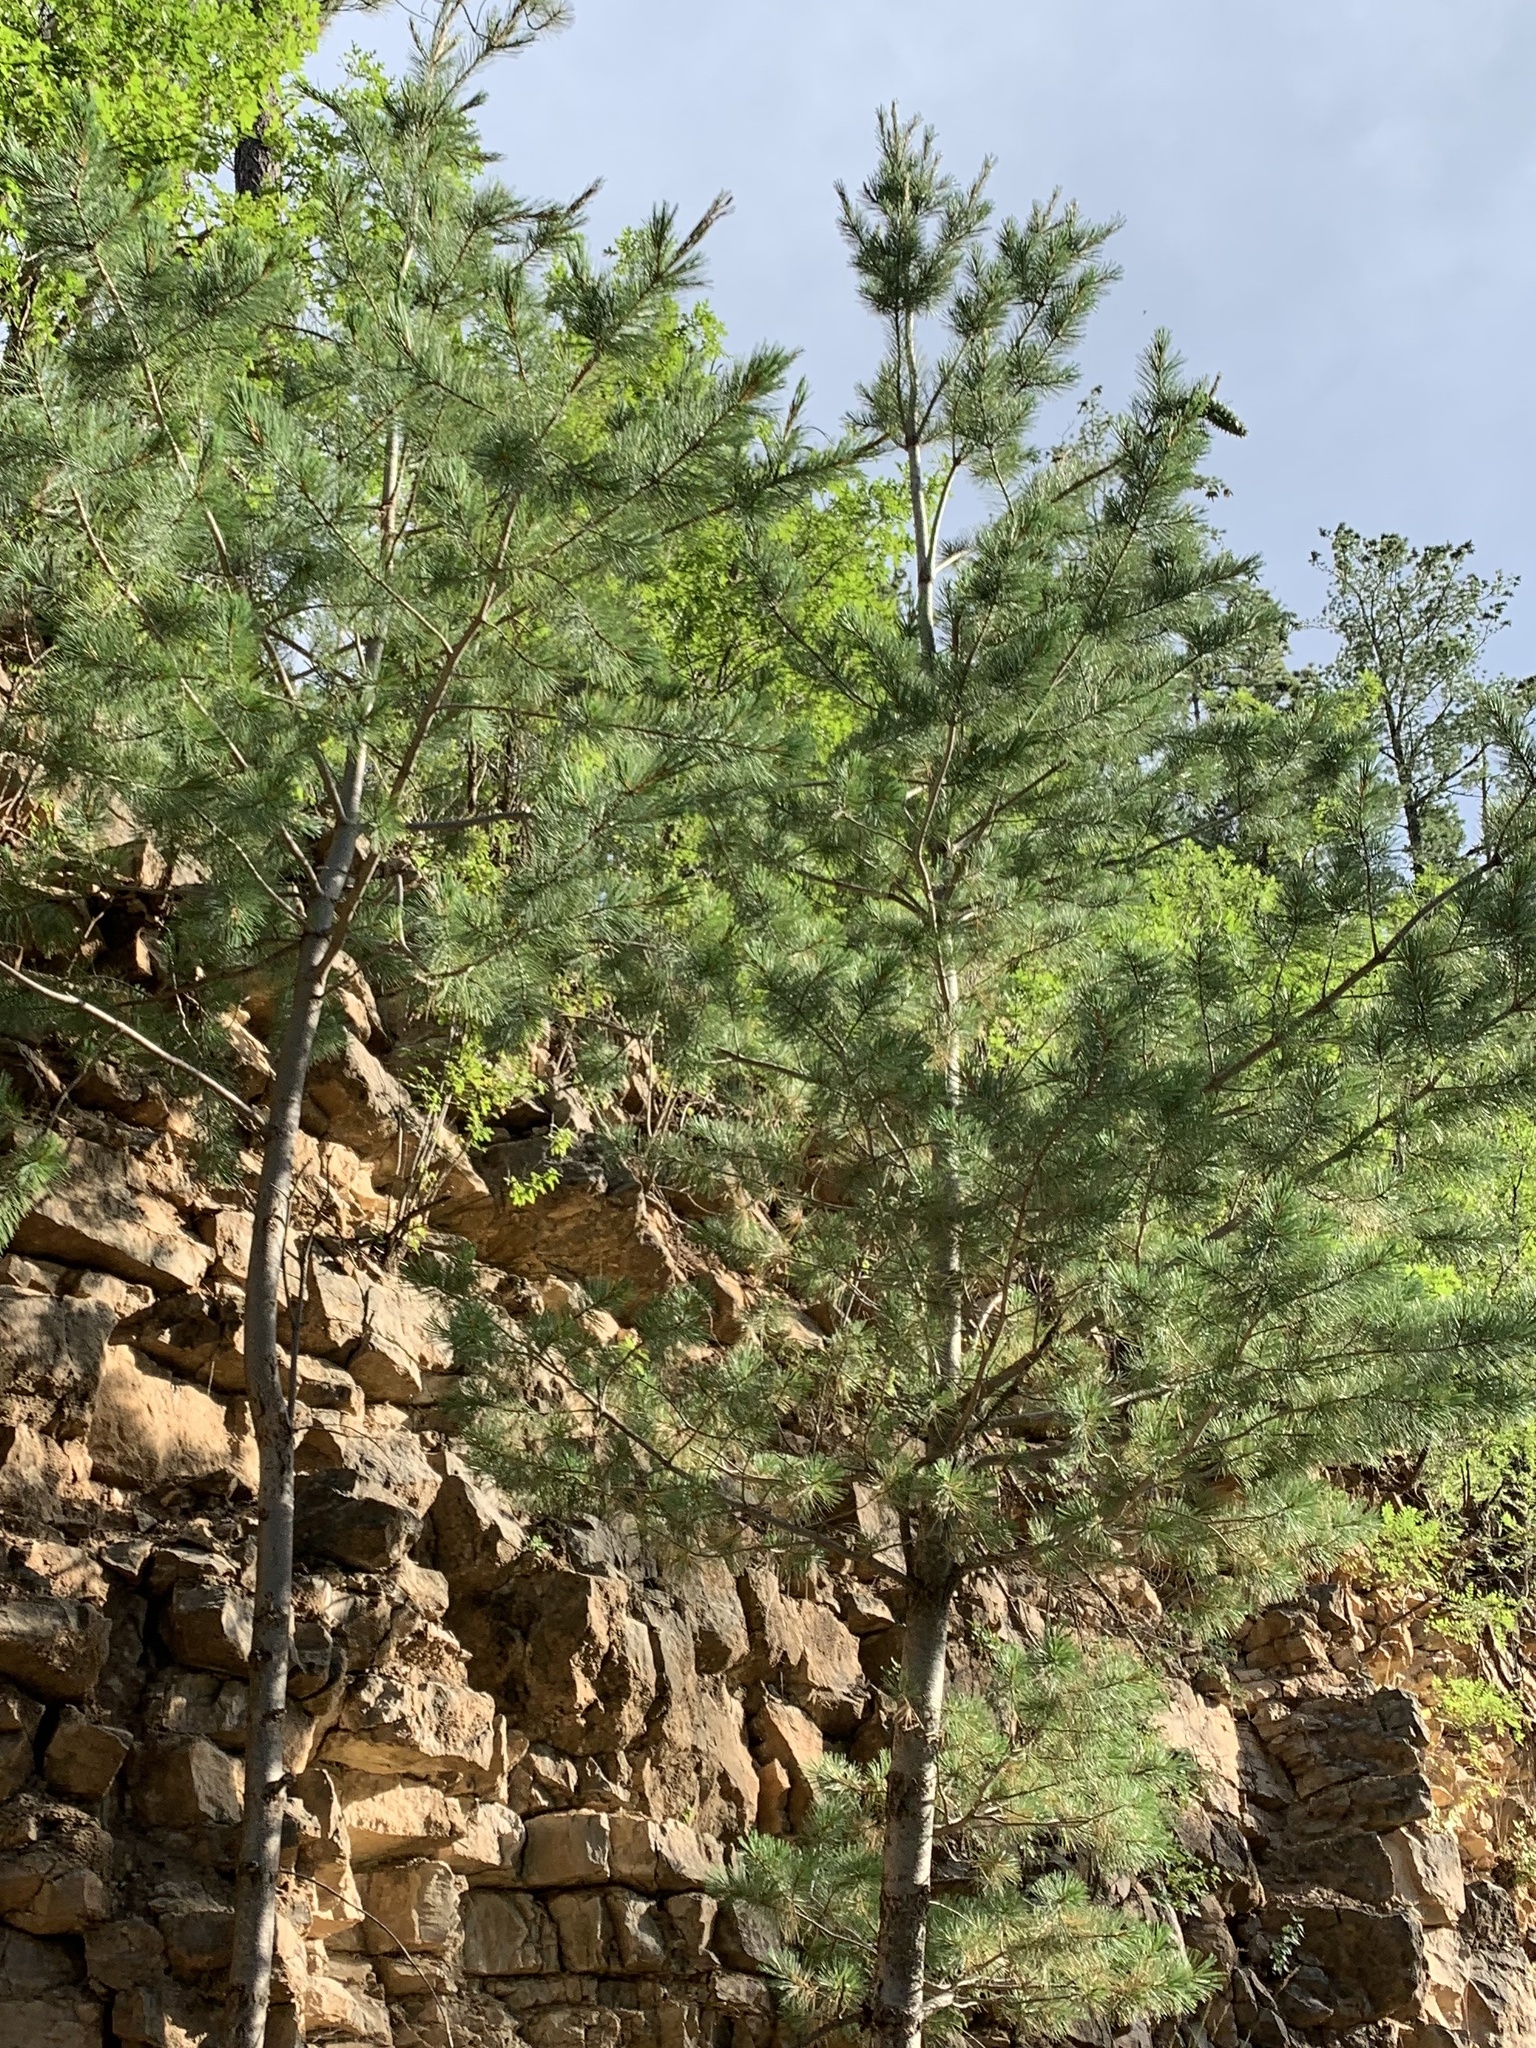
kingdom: Plantae
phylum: Tracheophyta
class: Pinopsida
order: Pinales
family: Pinaceae
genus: Pinus
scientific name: Pinus strobiformis
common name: Southwestern white pine
